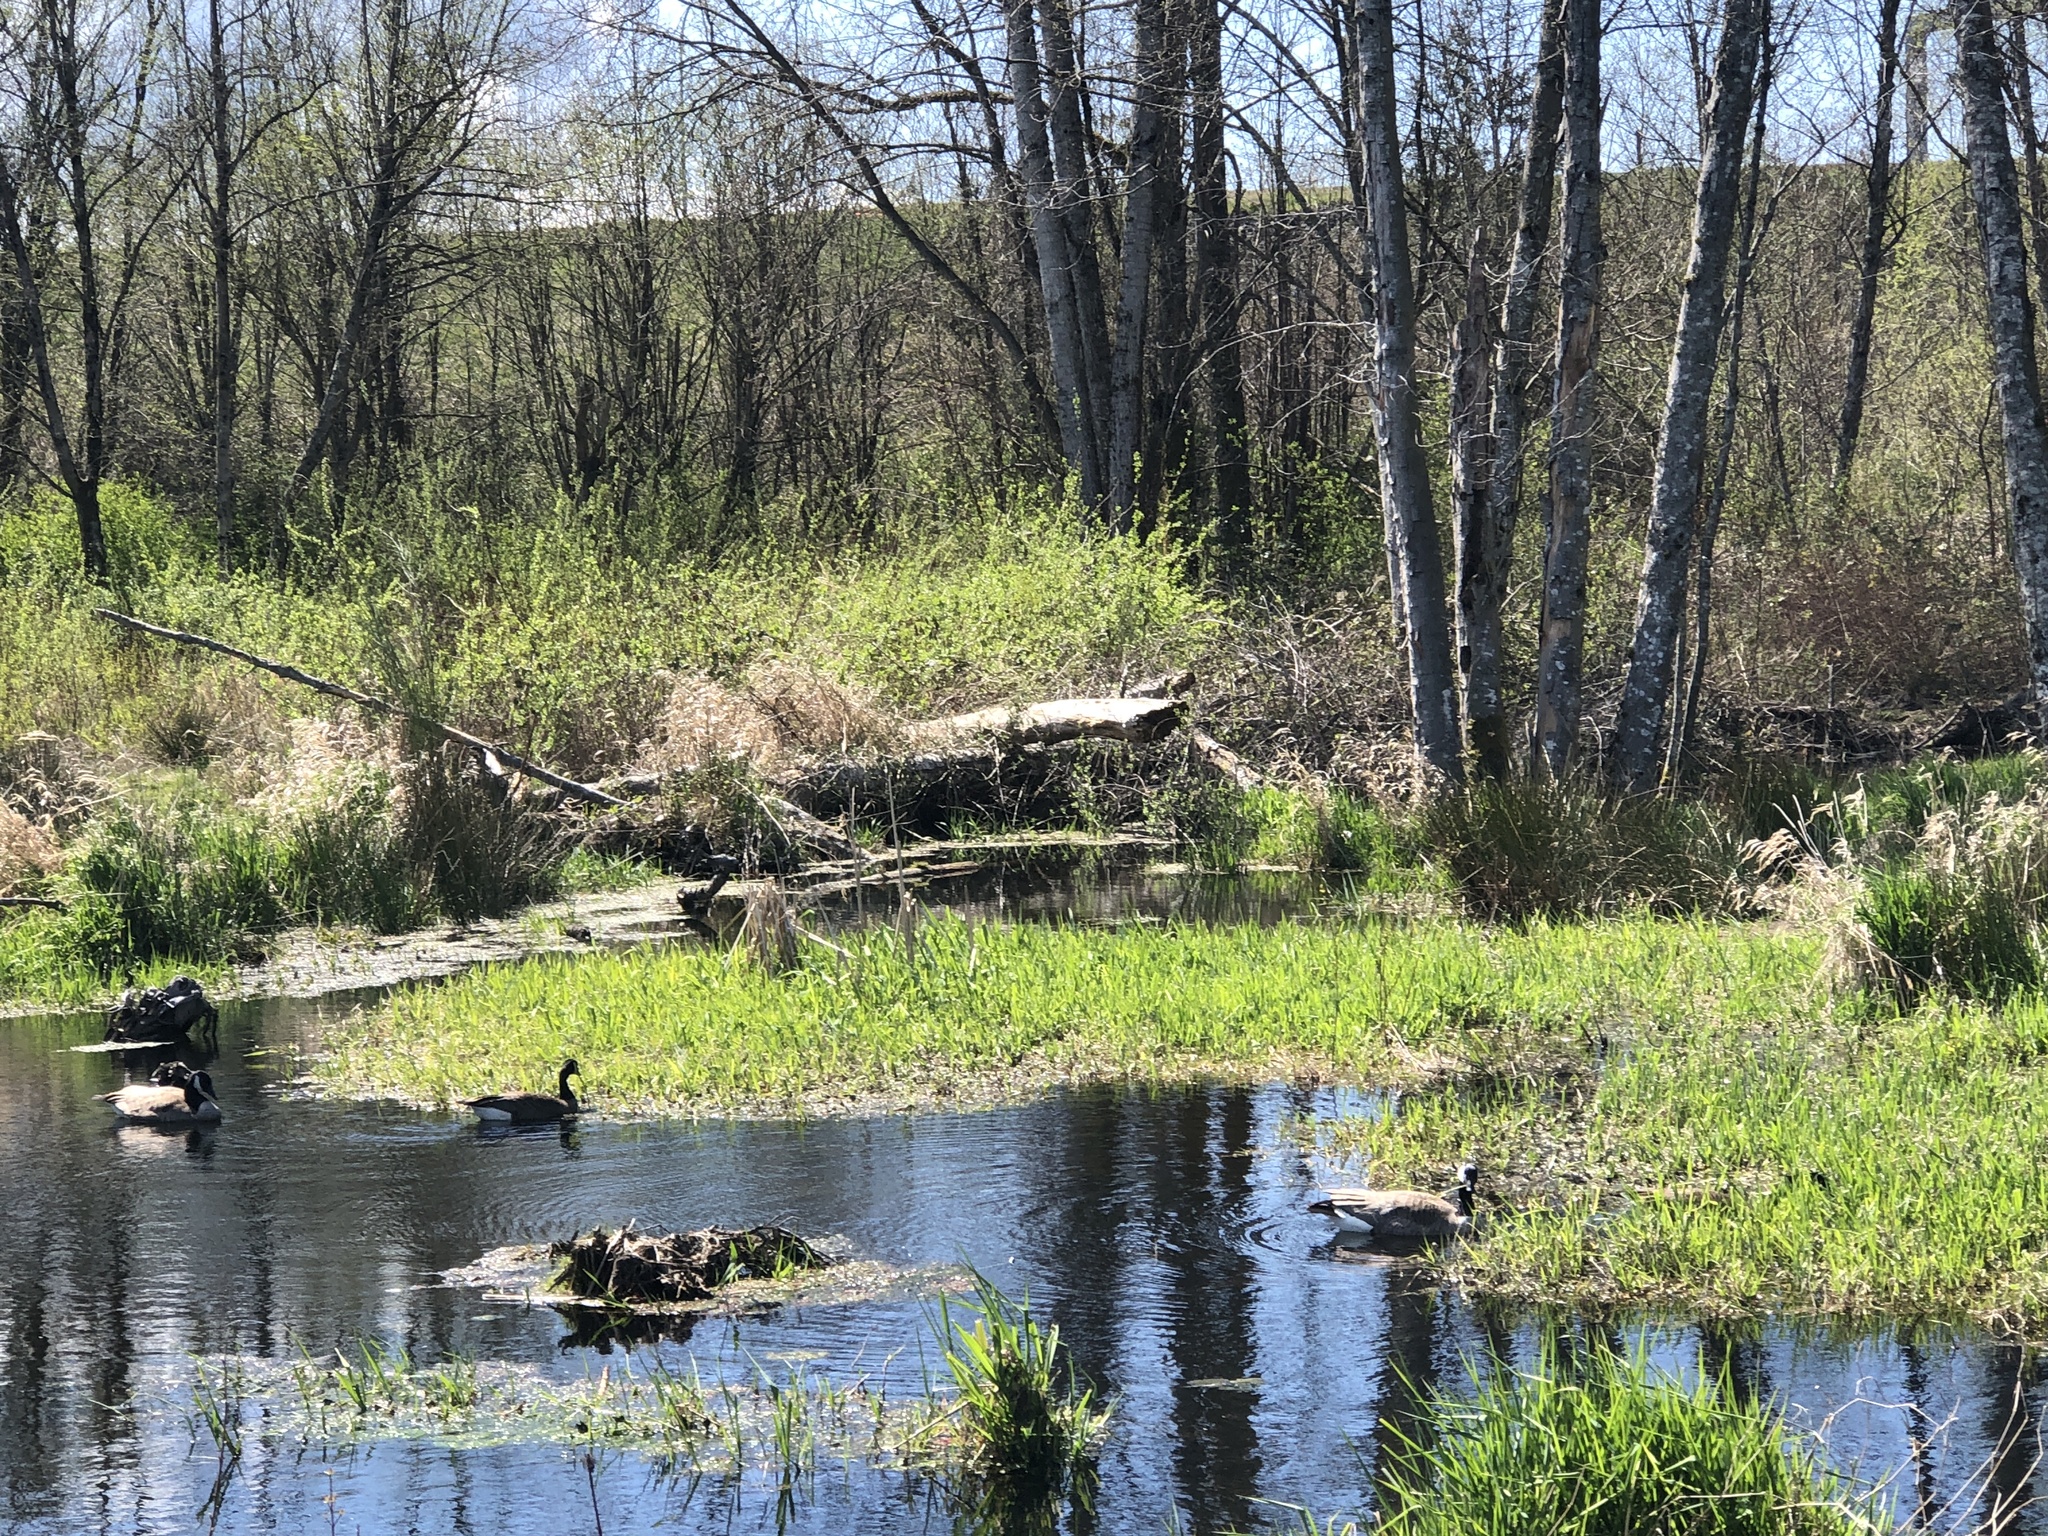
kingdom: Animalia
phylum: Chordata
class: Aves
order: Anseriformes
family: Anatidae
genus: Branta
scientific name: Branta canadensis
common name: Canada goose
